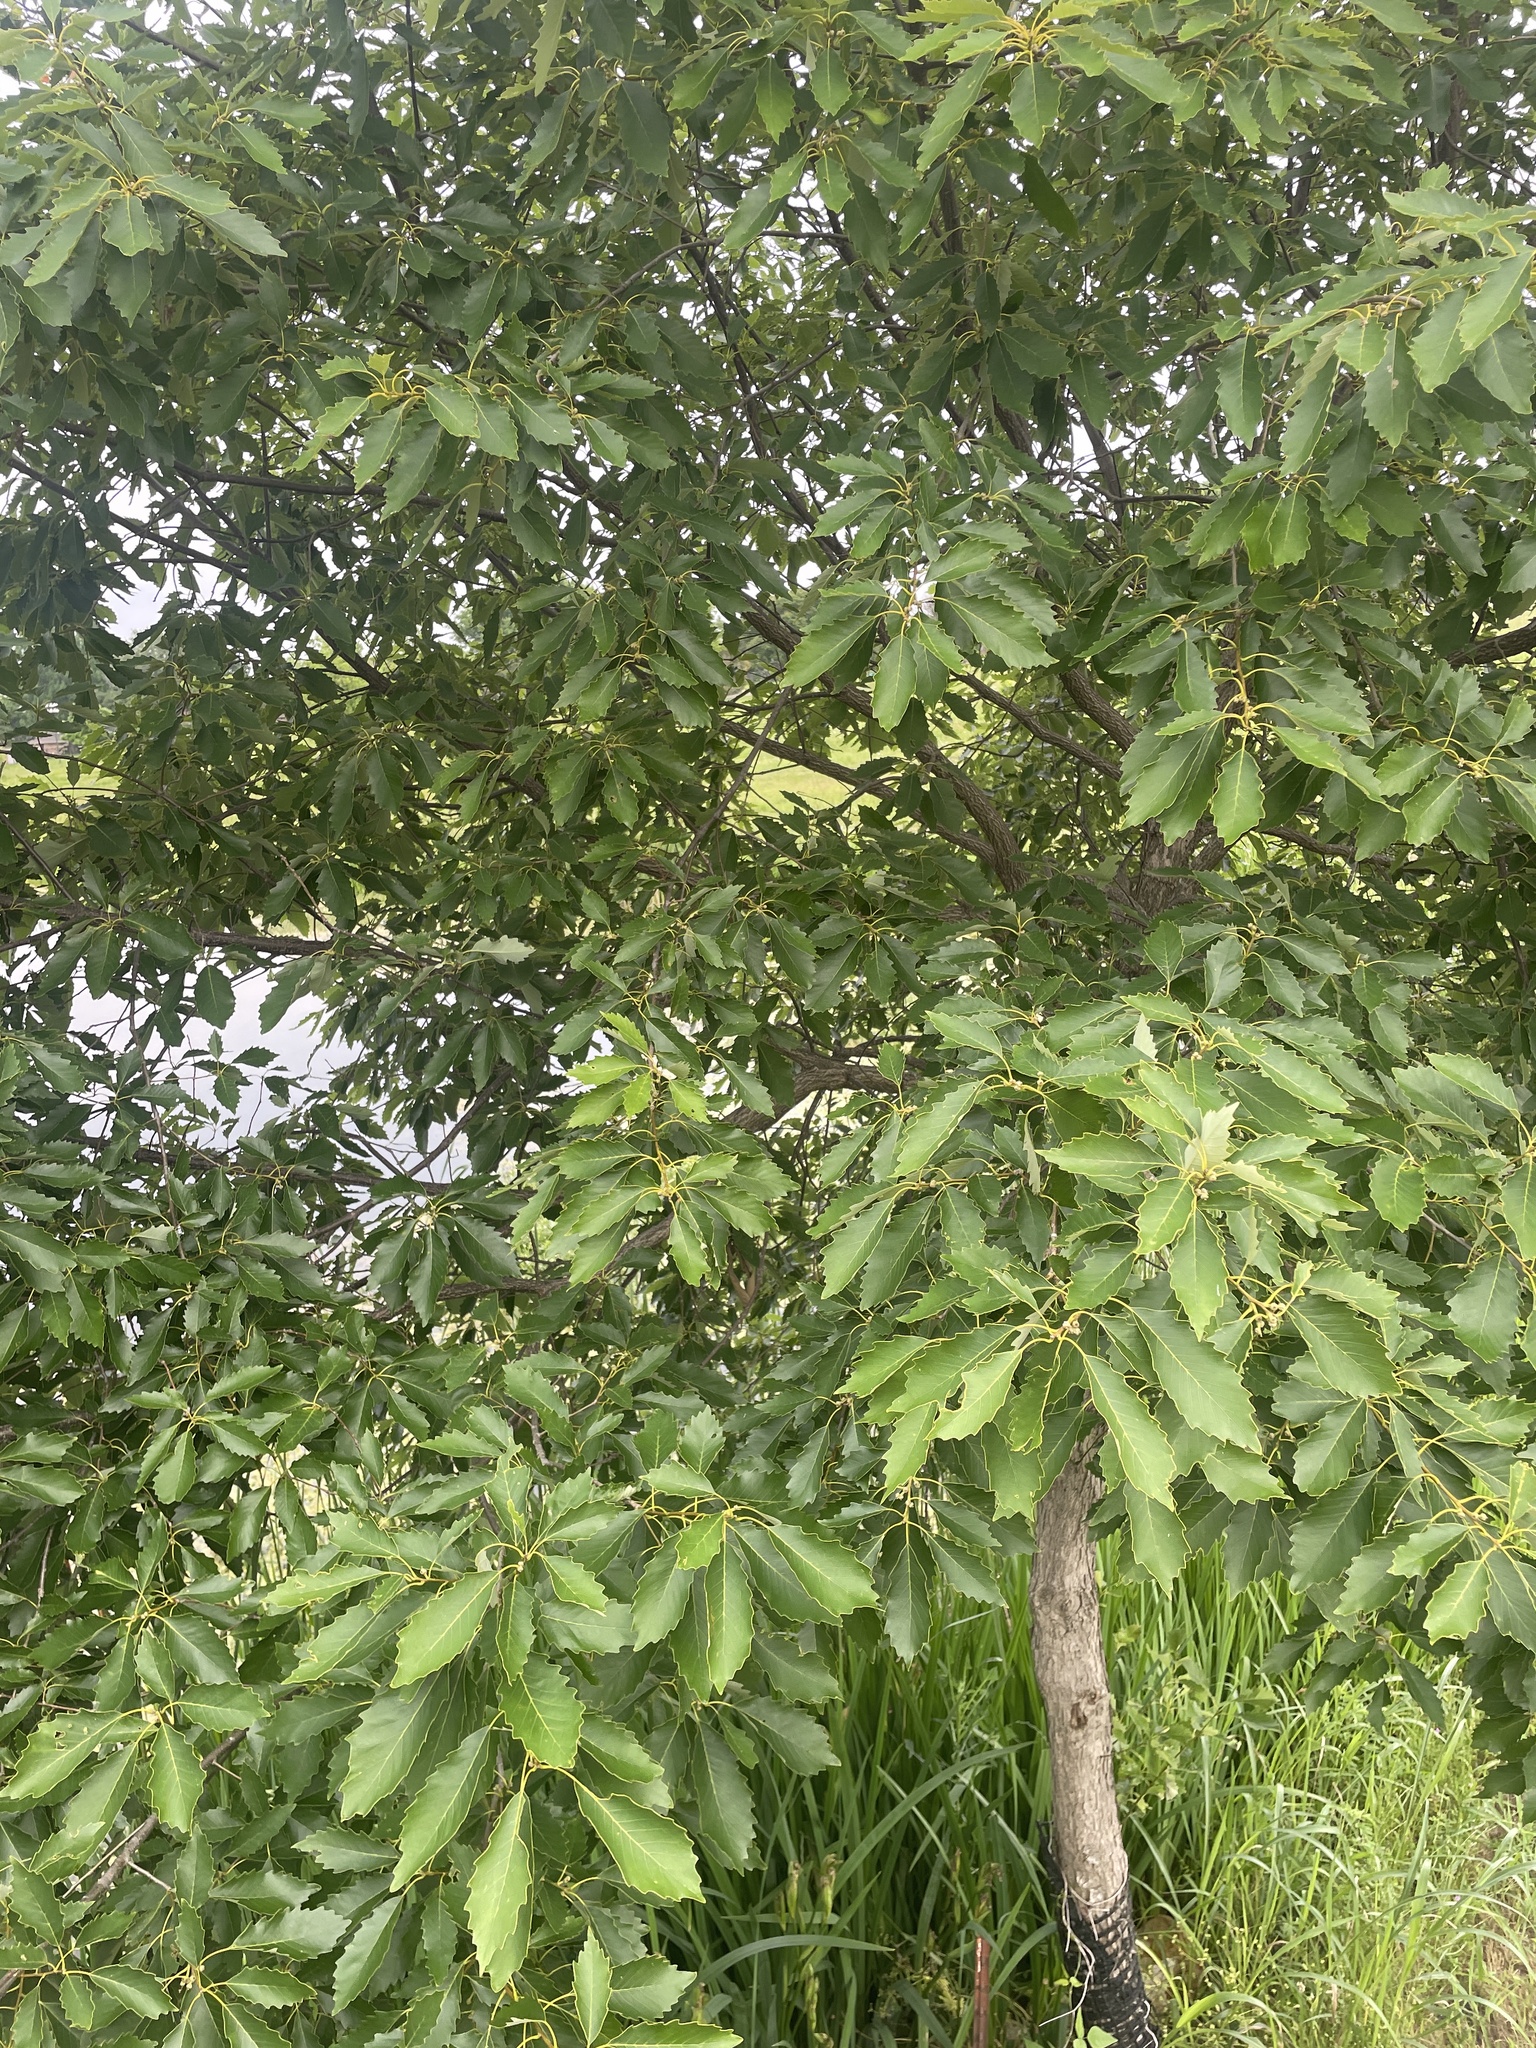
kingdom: Plantae
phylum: Tracheophyta
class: Magnoliopsida
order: Fagales
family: Fagaceae
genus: Quercus
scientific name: Quercus muehlenbergii
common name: Chinkapin oak
